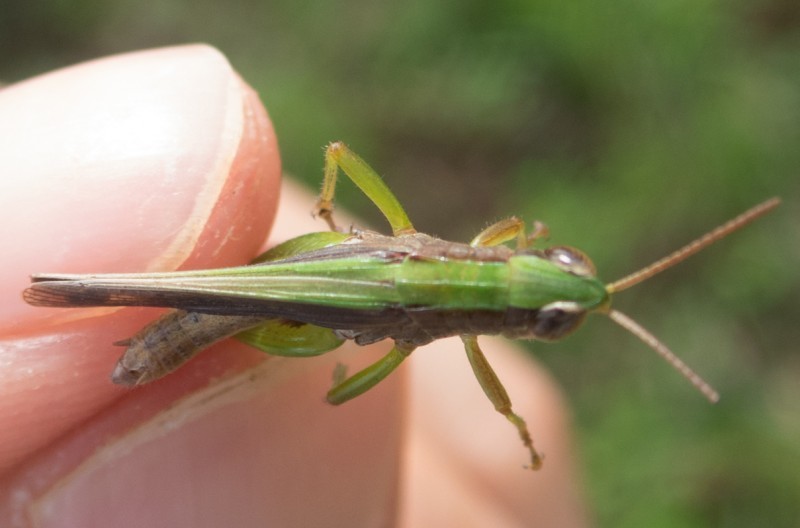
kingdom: Animalia
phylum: Arthropoda
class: Insecta
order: Orthoptera
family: Acrididae
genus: Orphulella
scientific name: Orphulella scudderi
